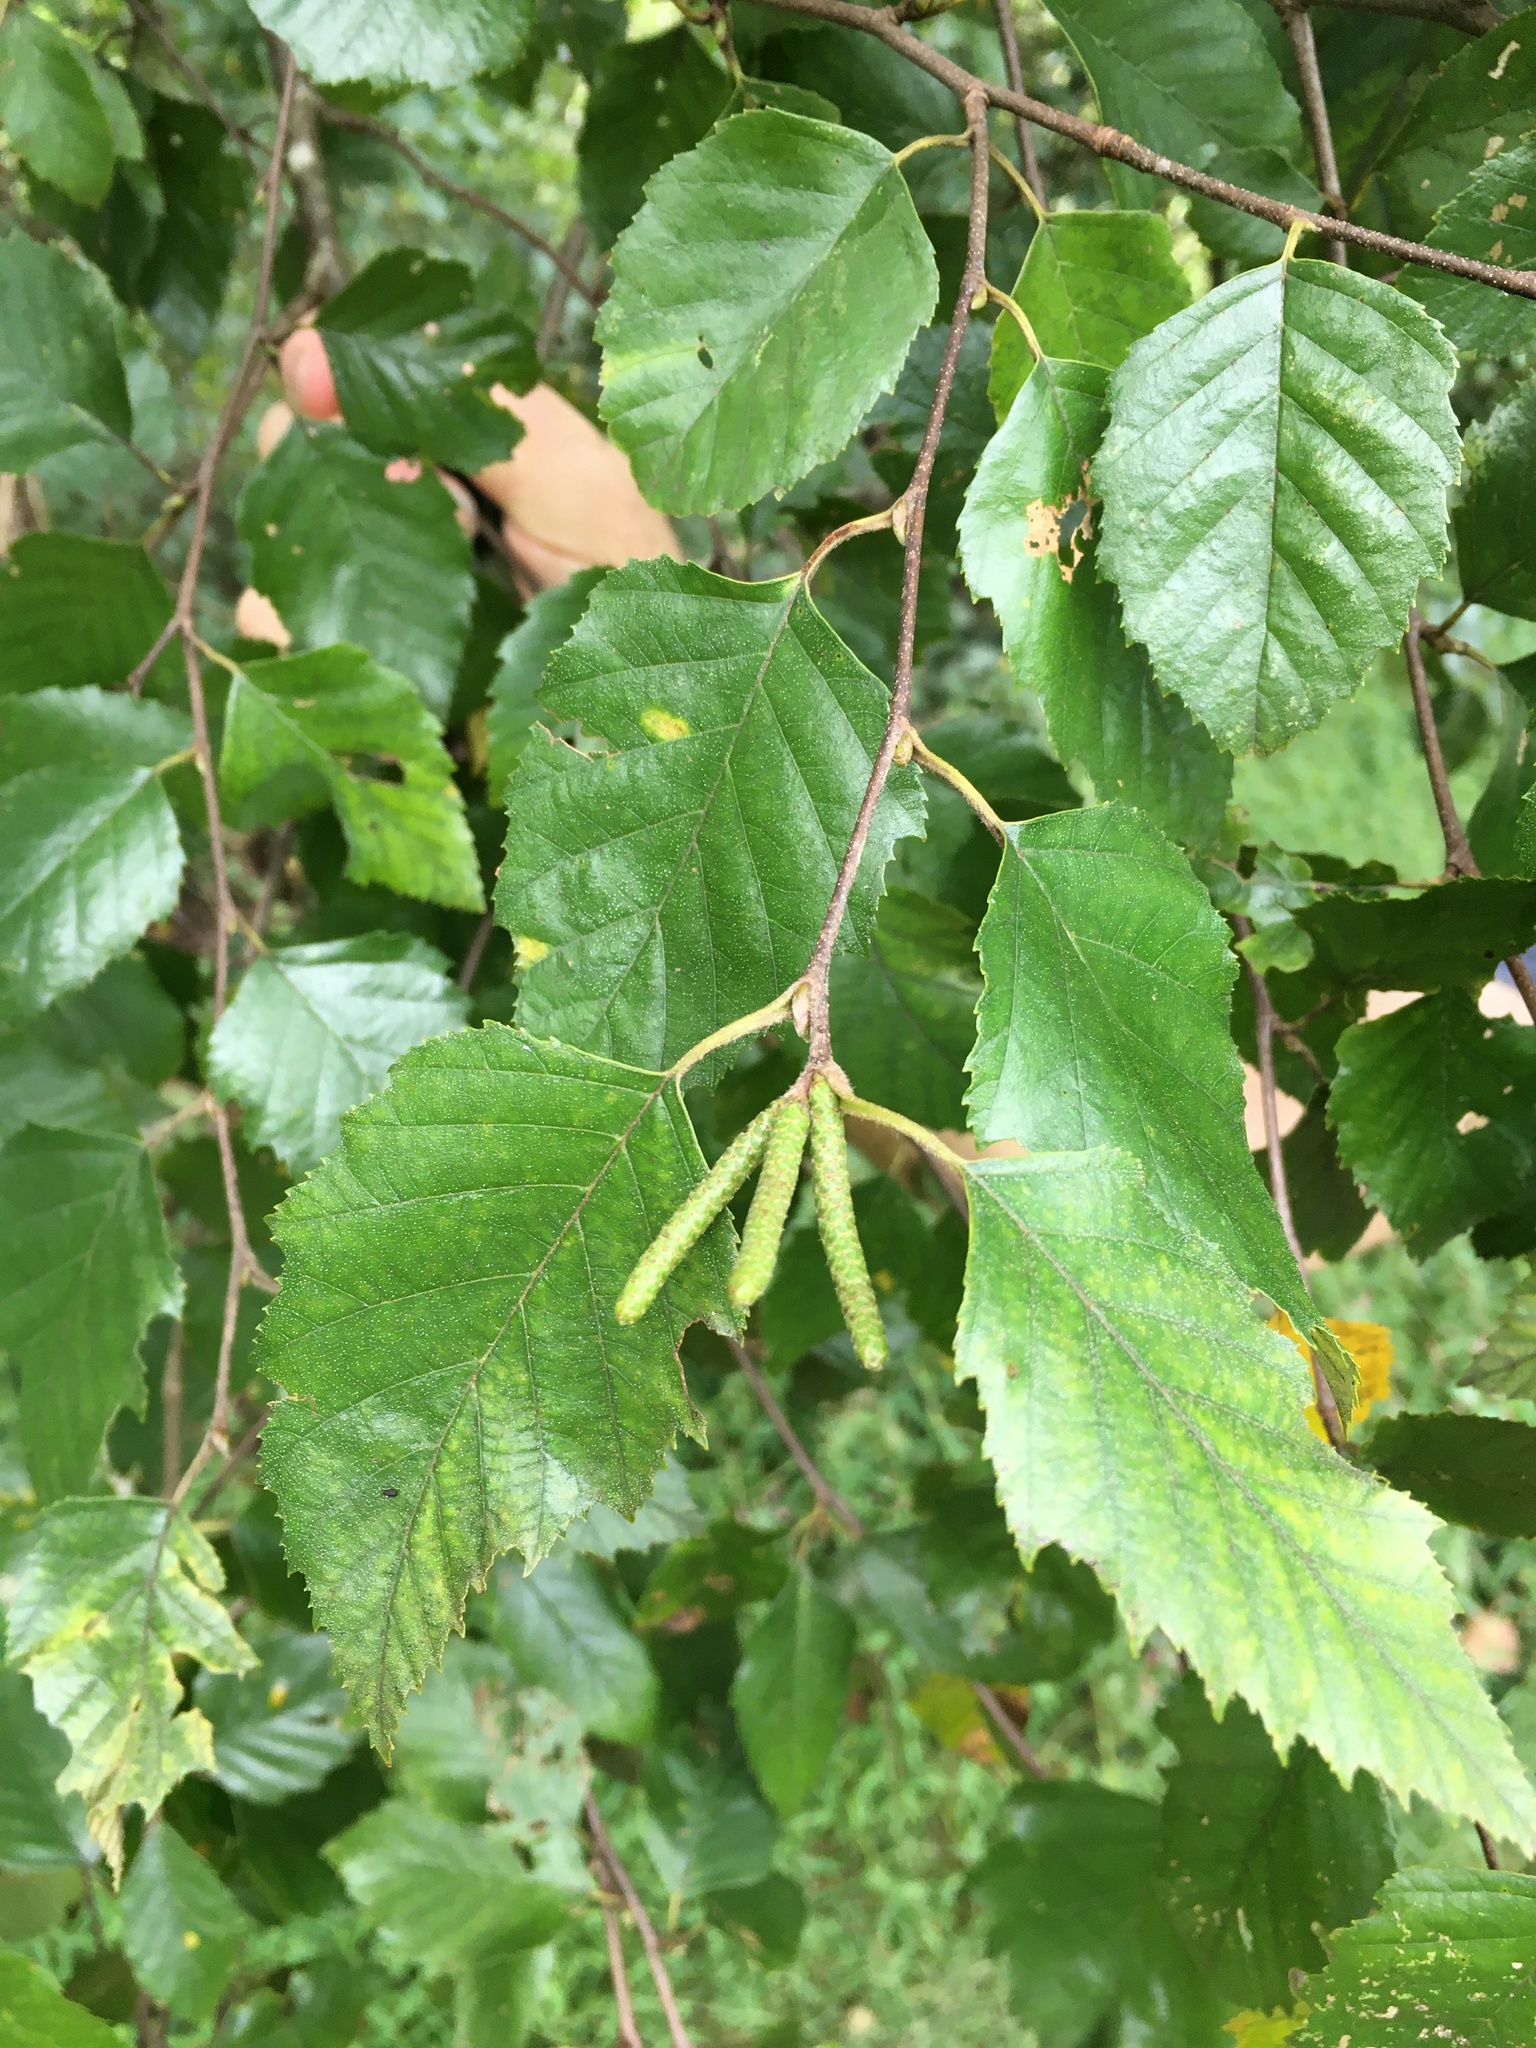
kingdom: Plantae
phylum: Tracheophyta
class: Magnoliopsida
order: Fagales
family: Betulaceae
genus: Betula
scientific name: Betula nigra
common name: Black birch
